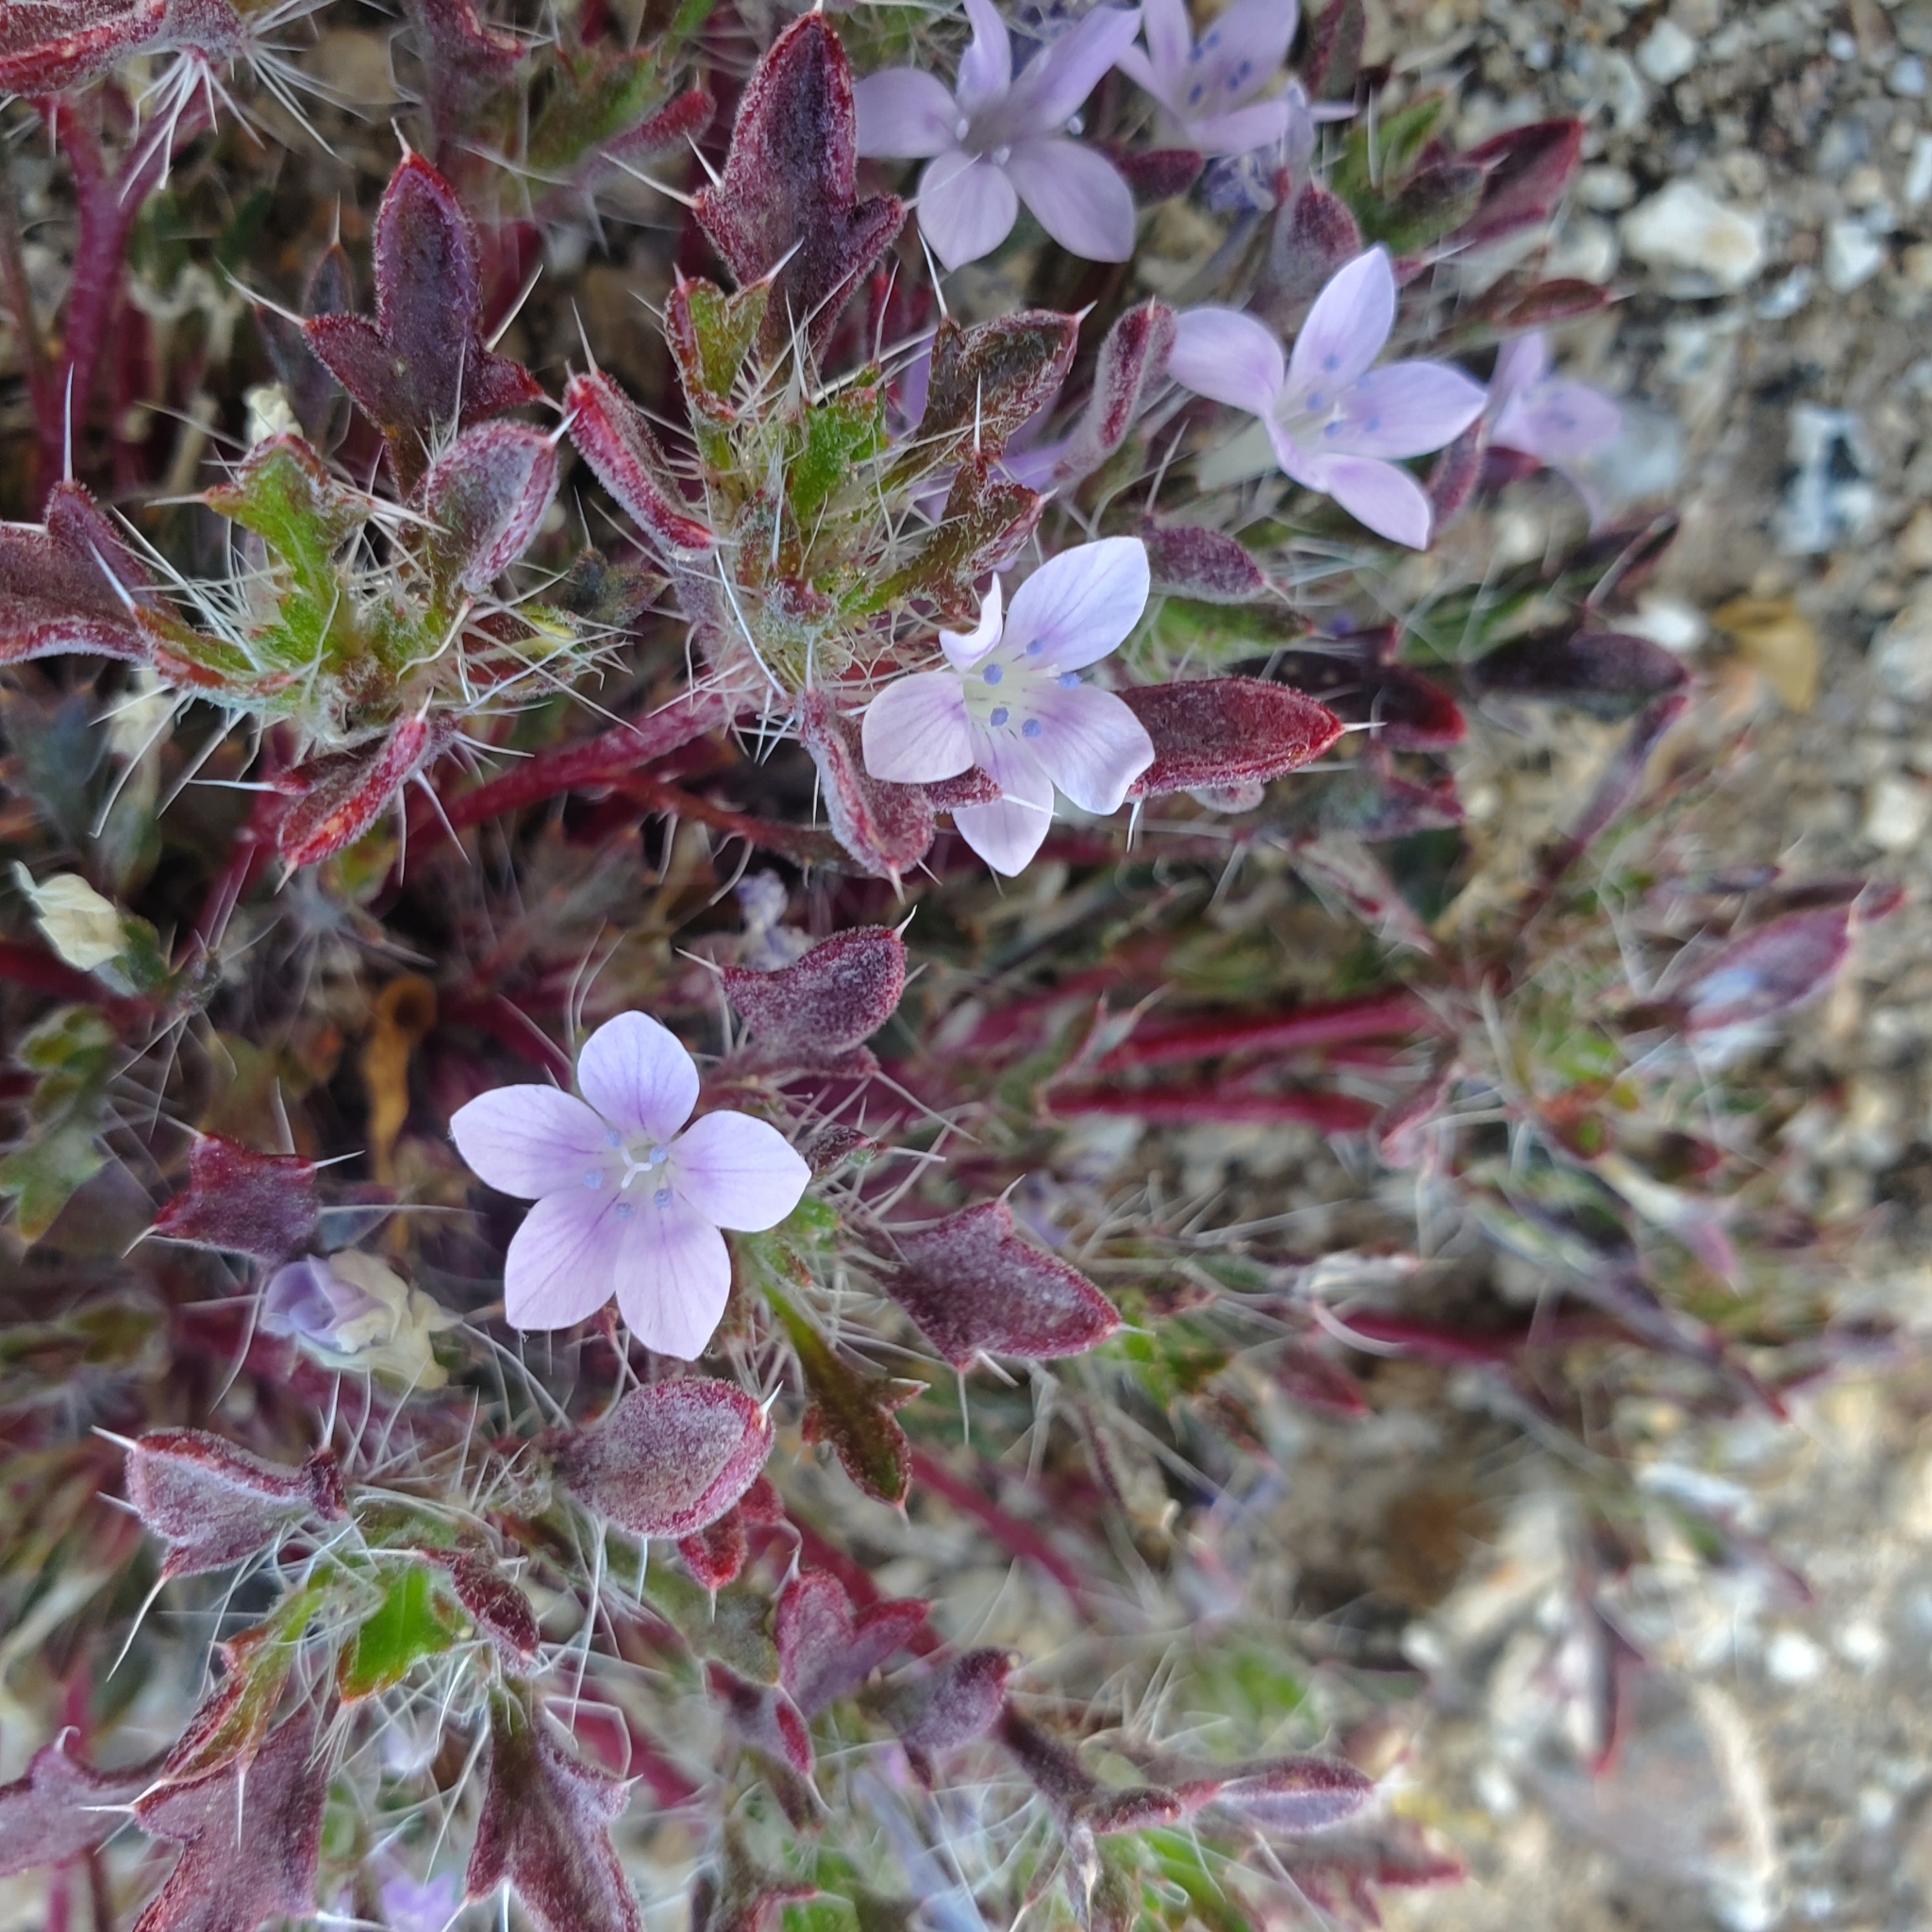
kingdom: Plantae
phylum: Tracheophyta
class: Magnoliopsida
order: Ericales
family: Polemoniaceae
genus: Langloisia
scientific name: Langloisia setosissima
